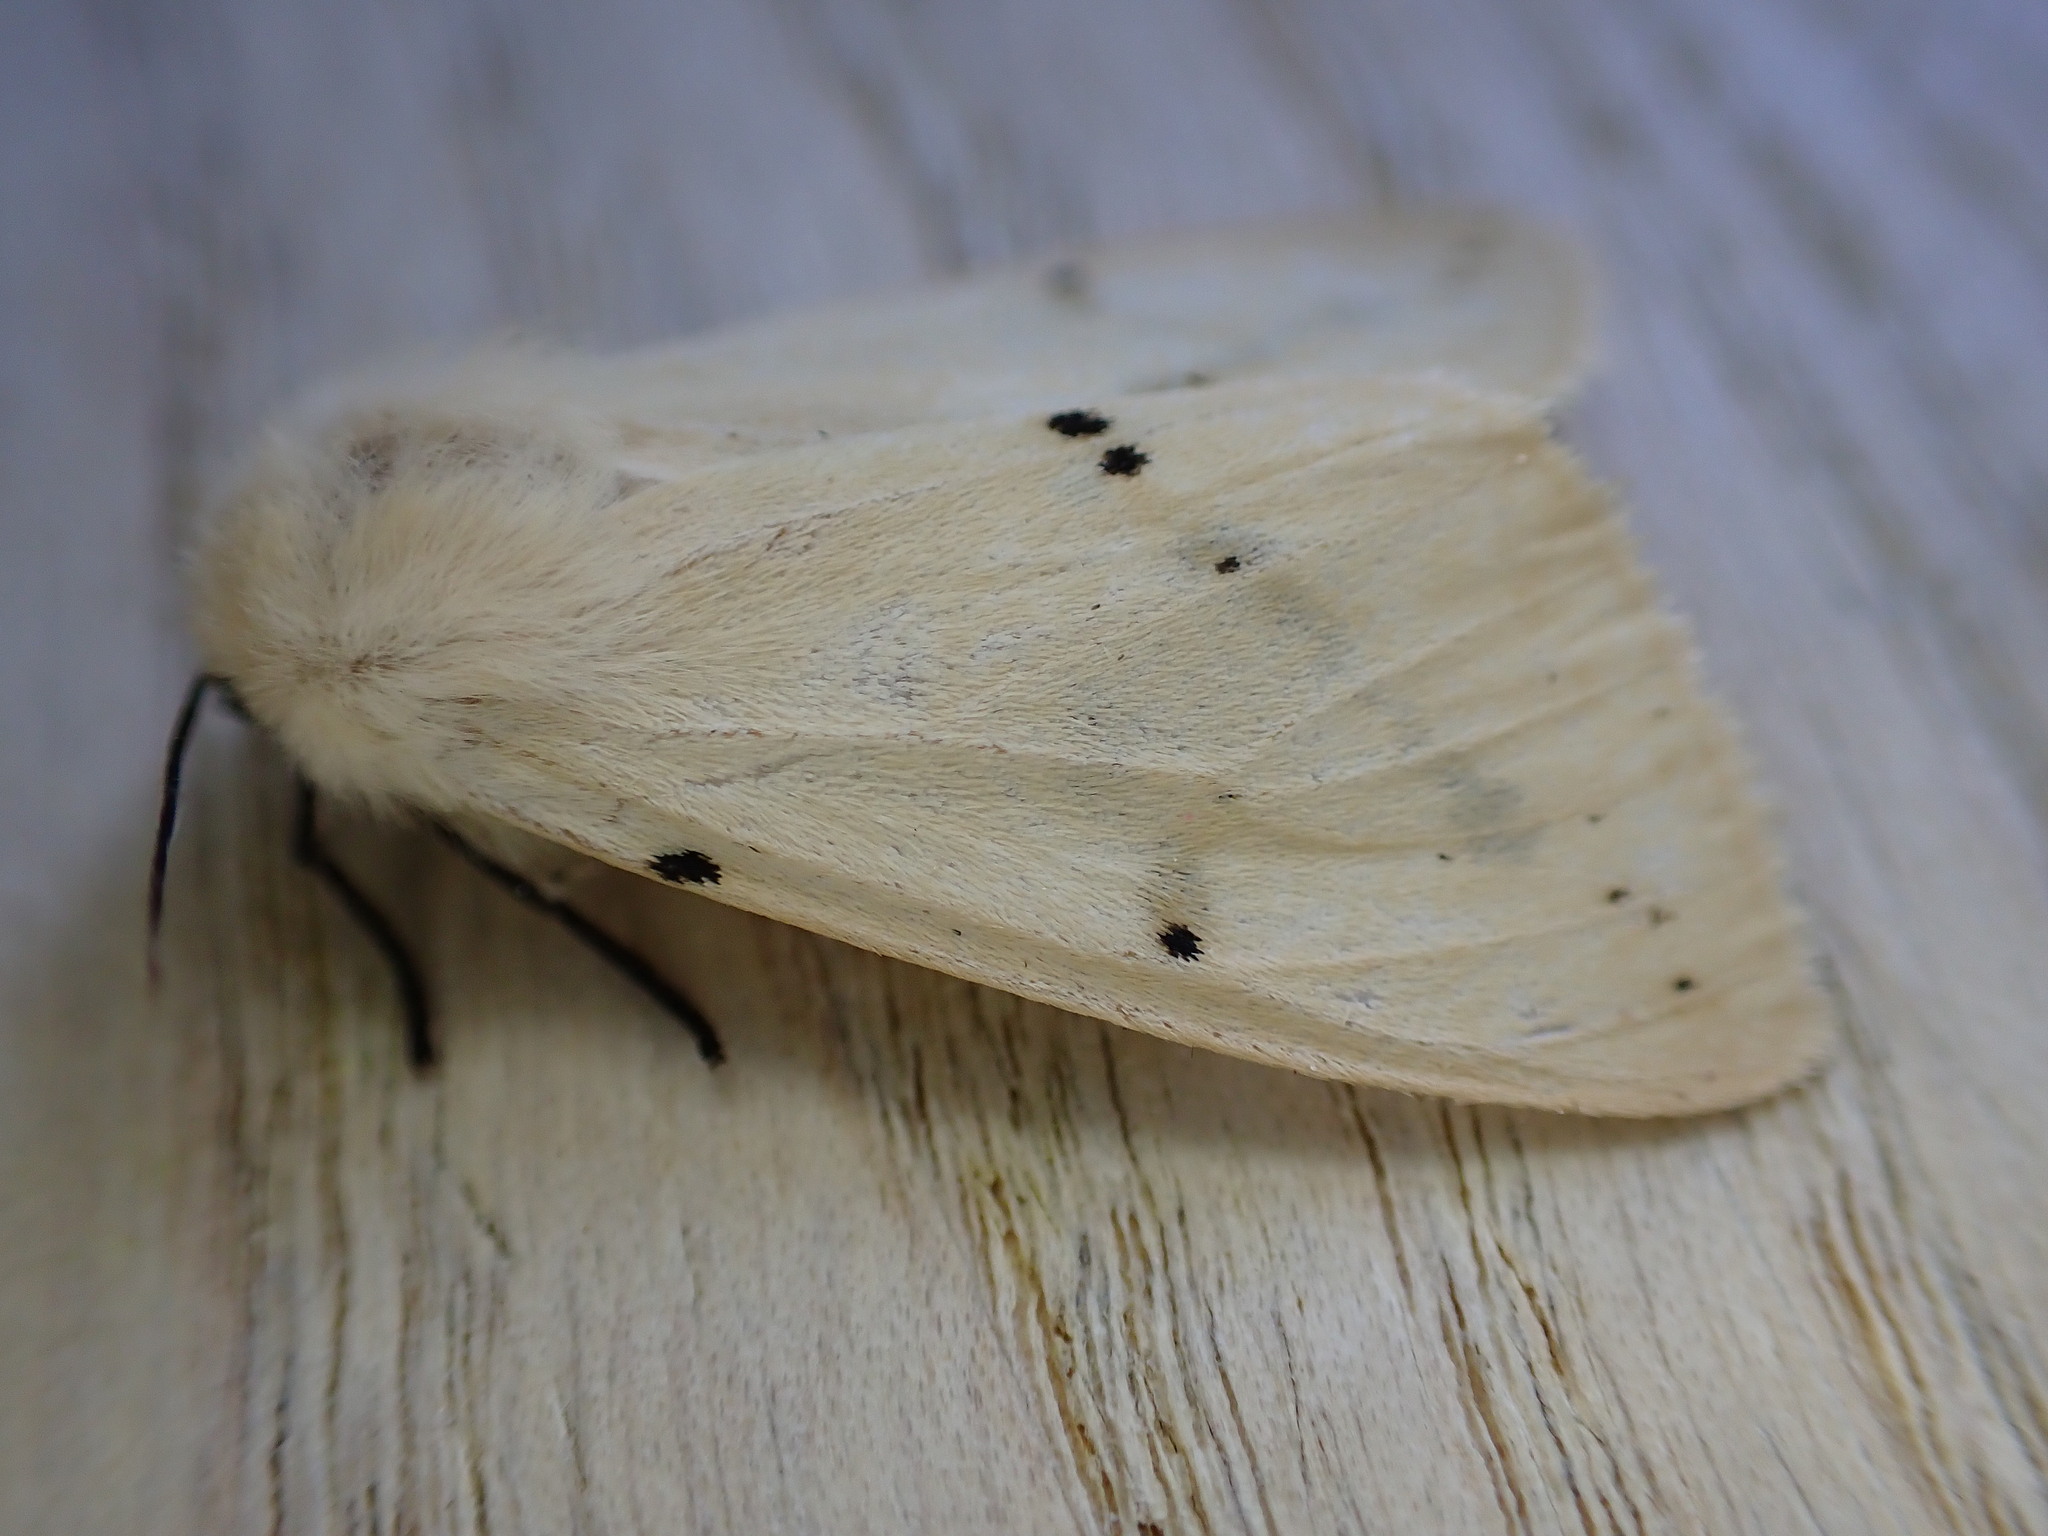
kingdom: Animalia
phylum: Arthropoda
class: Insecta
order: Lepidoptera
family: Erebidae
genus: Spilarctia
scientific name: Spilarctia lutea
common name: Buff ermine
